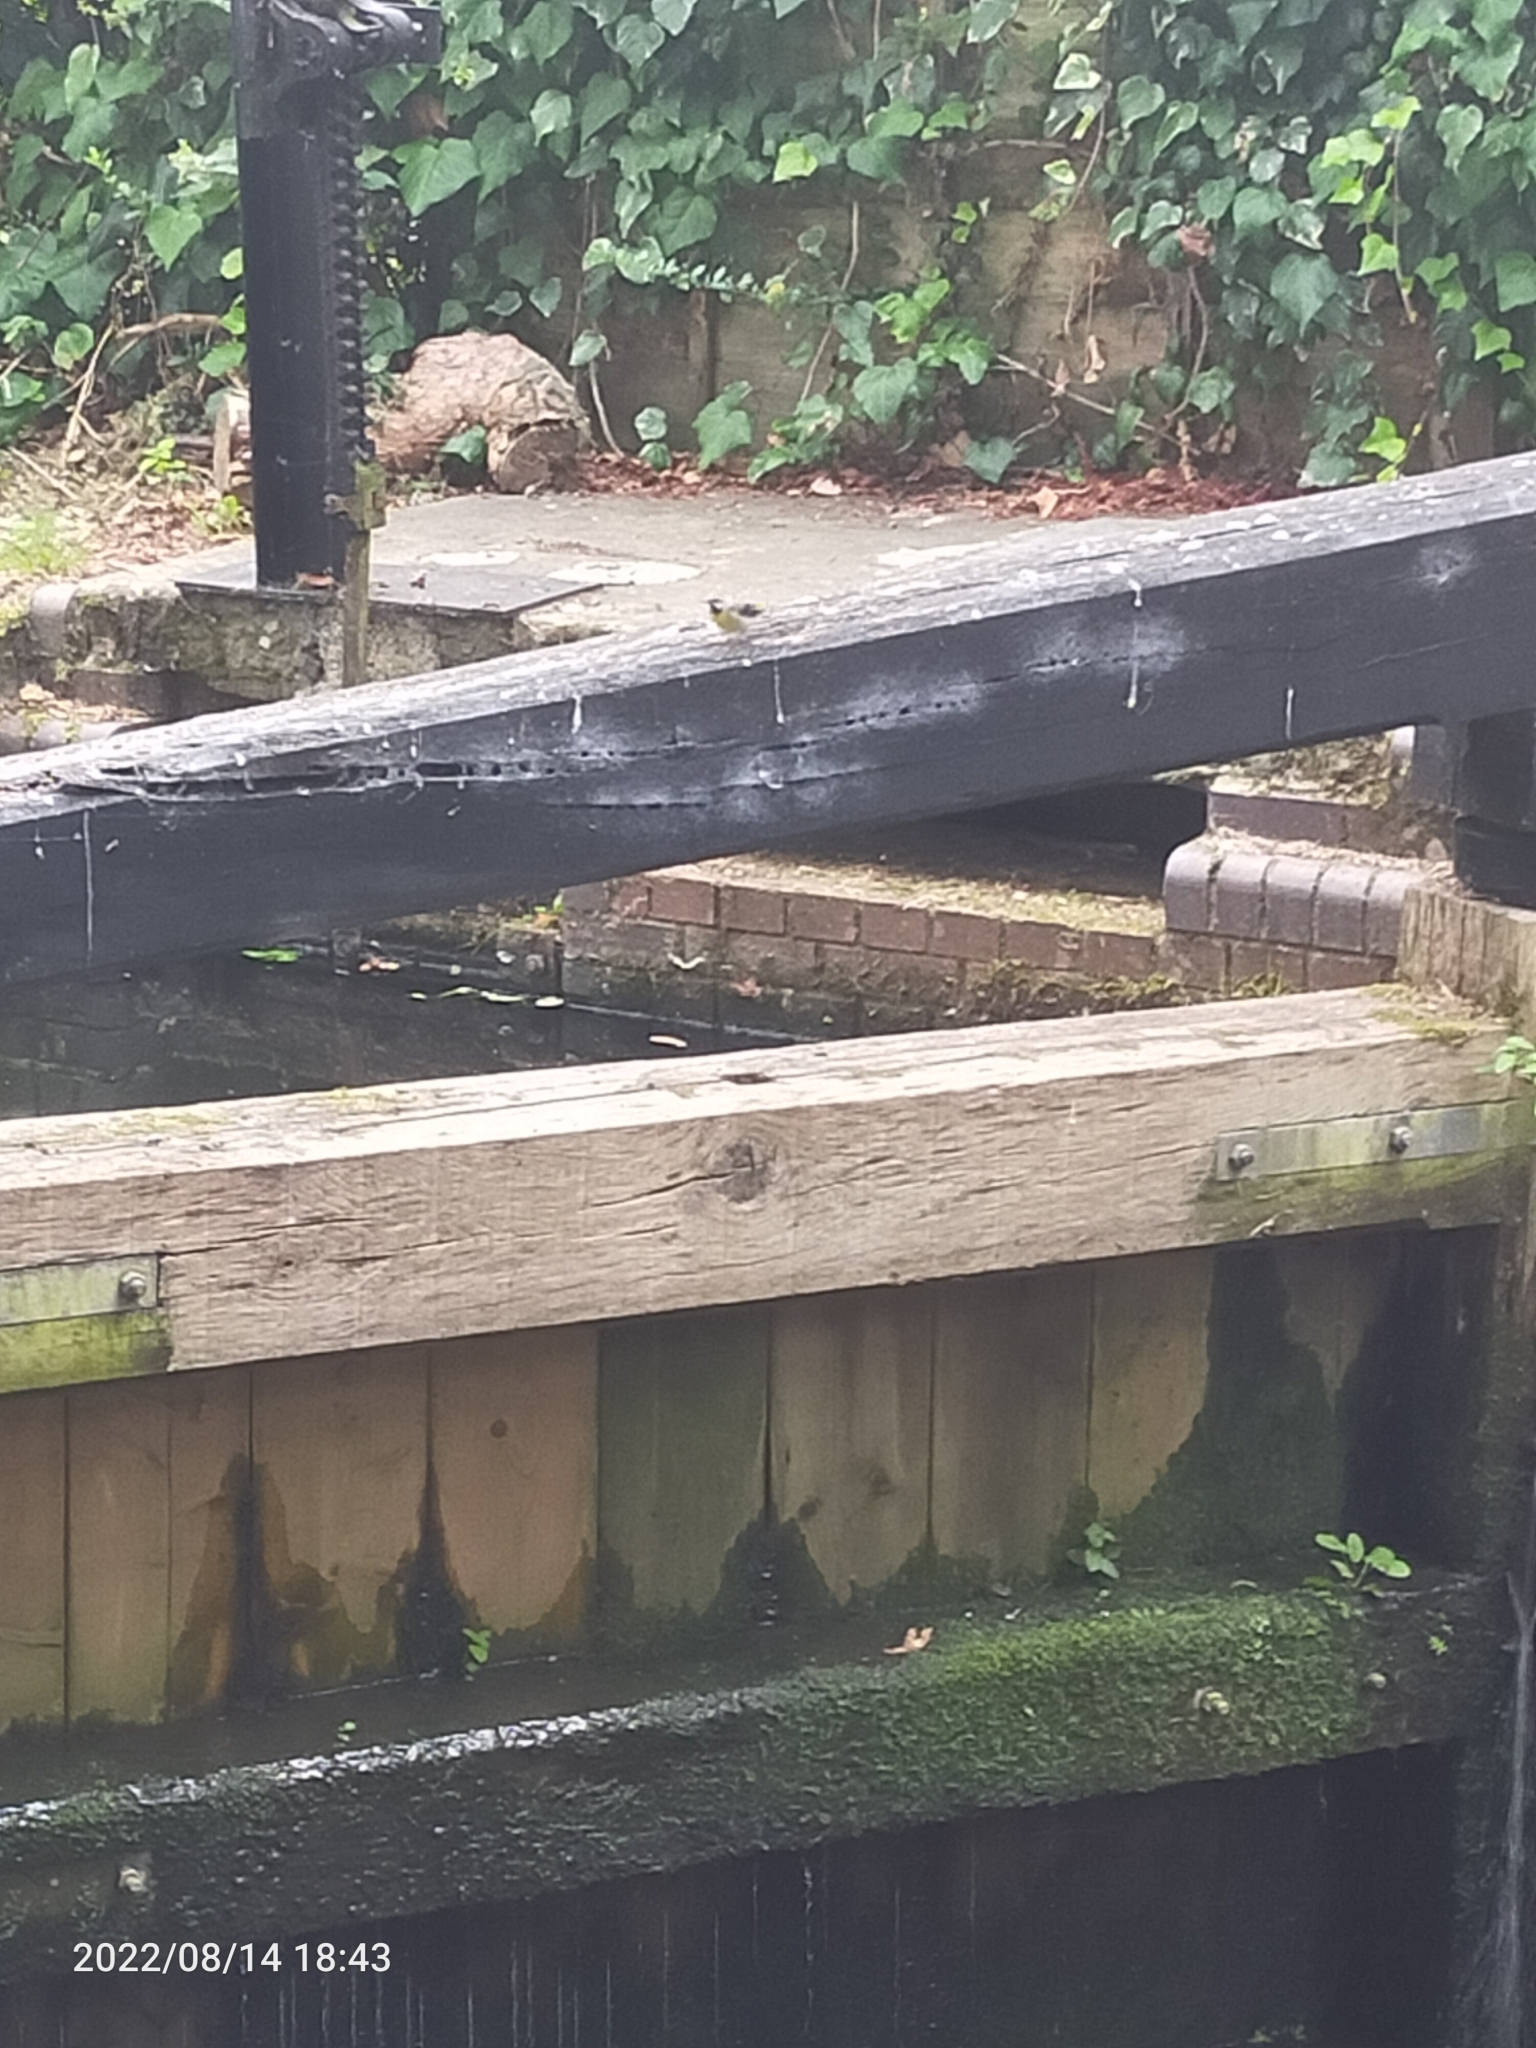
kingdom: Animalia
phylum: Chordata
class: Aves
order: Passeriformes
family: Motacillidae
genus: Motacilla
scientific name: Motacilla cinerea
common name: Grey wagtail
